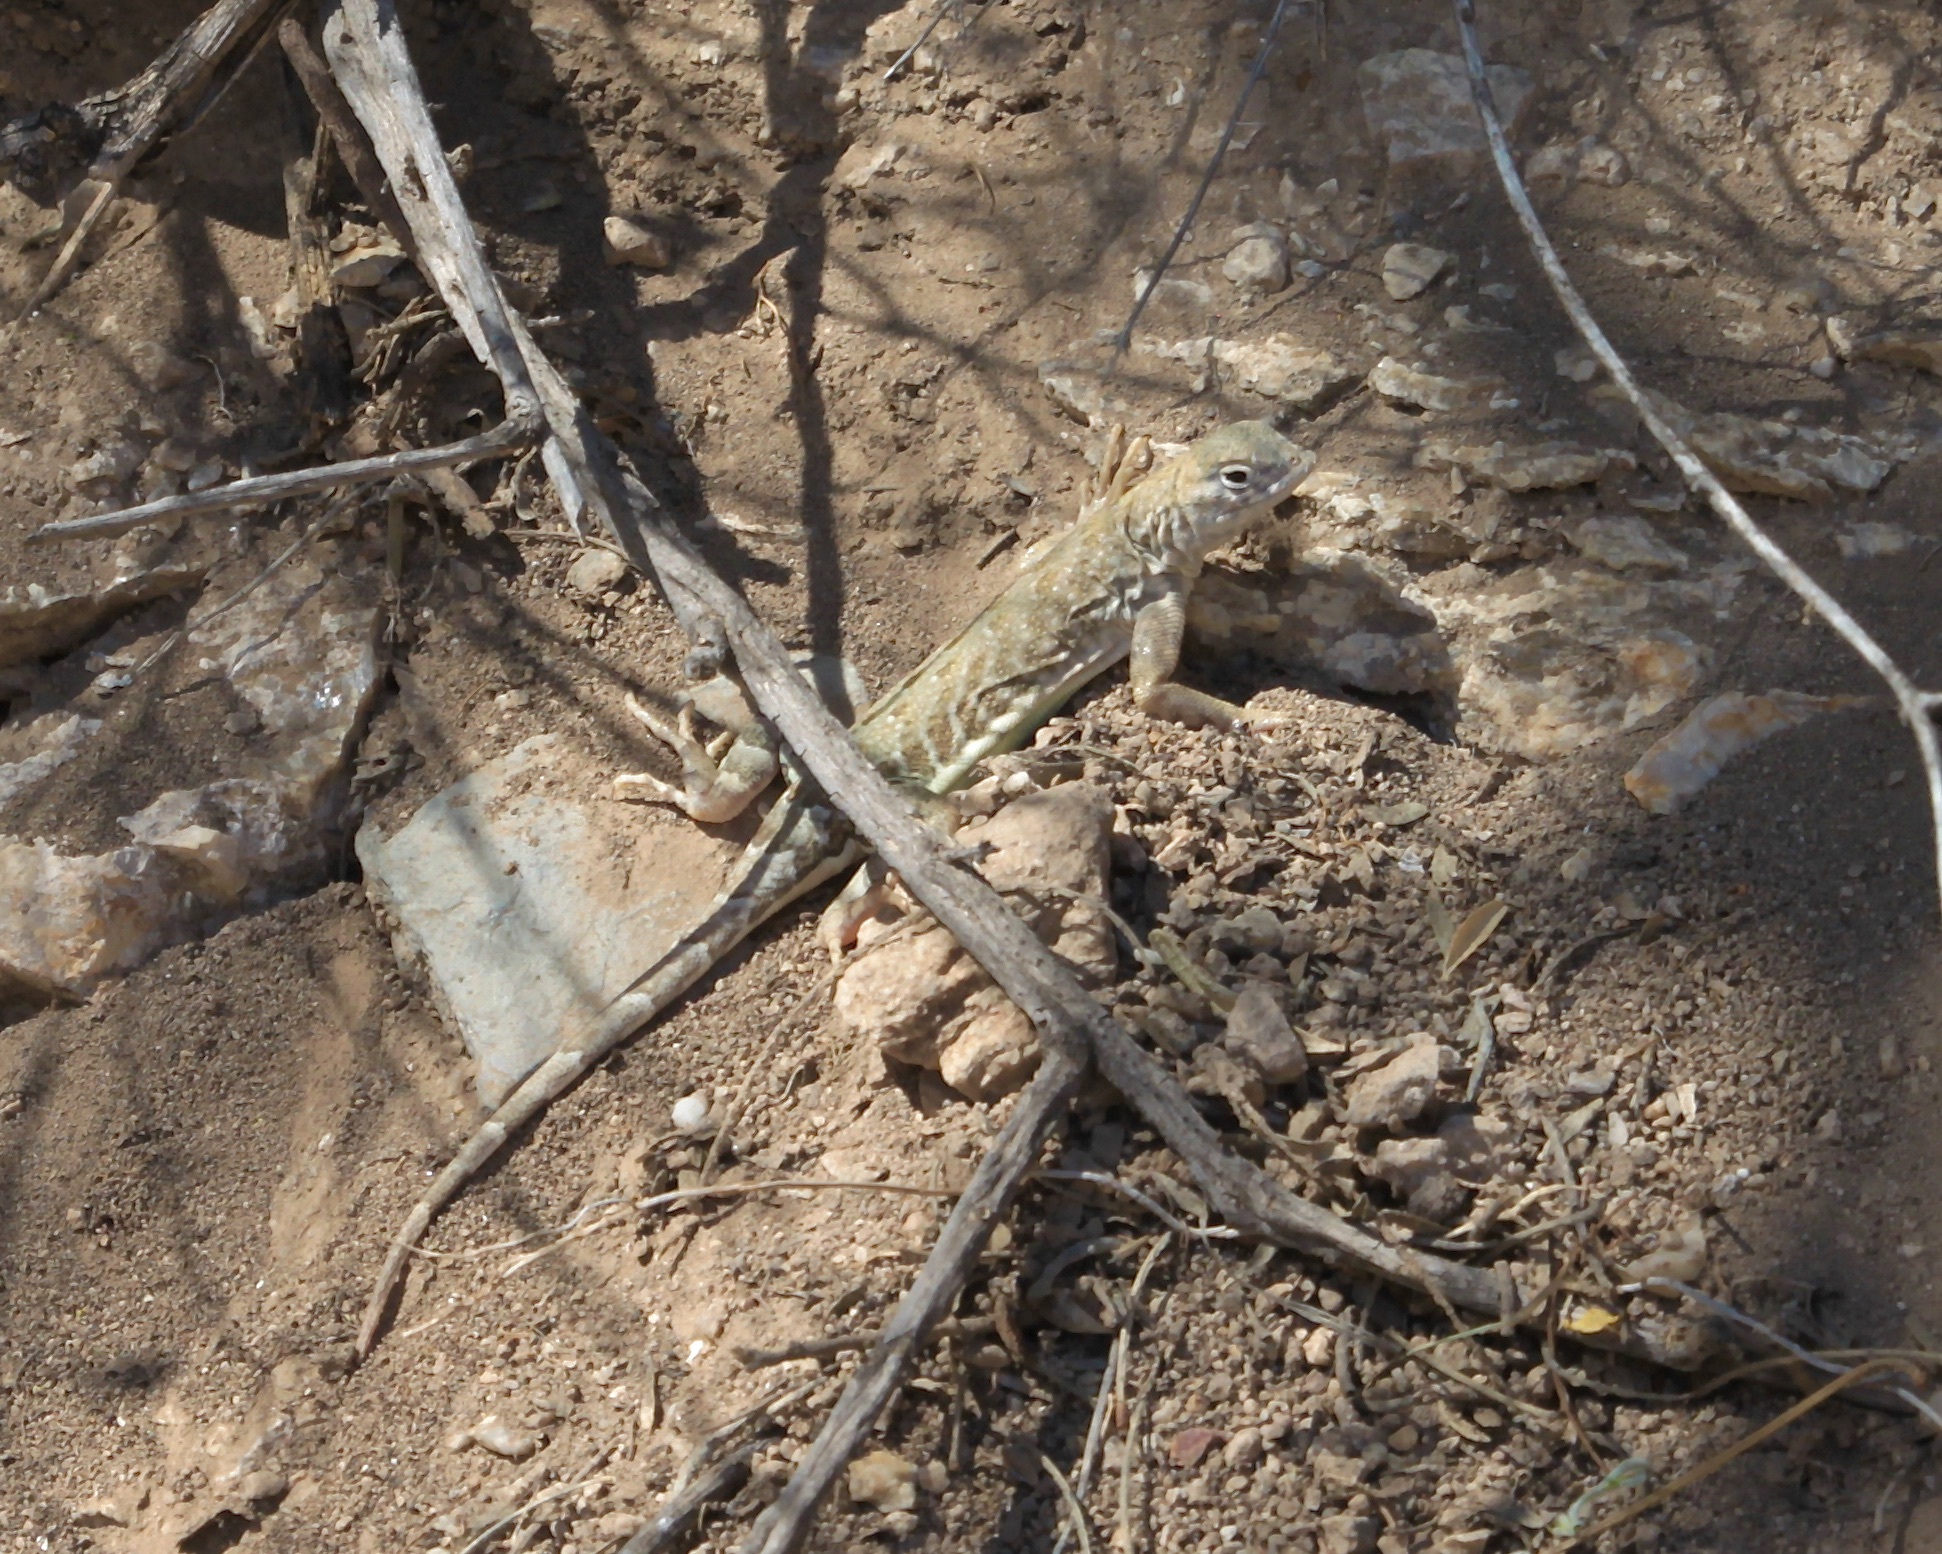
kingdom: Animalia
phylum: Chordata
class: Squamata
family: Phrynosomatidae
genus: Cophosaurus
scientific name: Cophosaurus texanus
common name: Greater earless lizard
